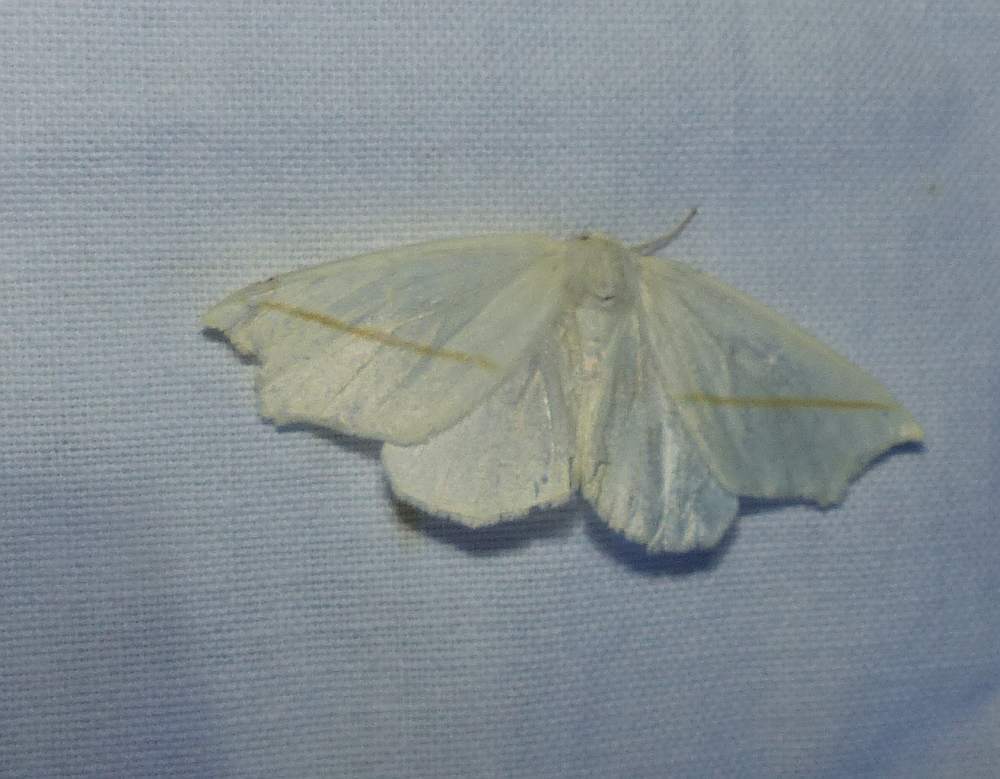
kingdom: Animalia
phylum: Arthropoda
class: Insecta
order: Lepidoptera
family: Geometridae
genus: Tetracis
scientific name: Tetracis cachexiata
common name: White slant-line
